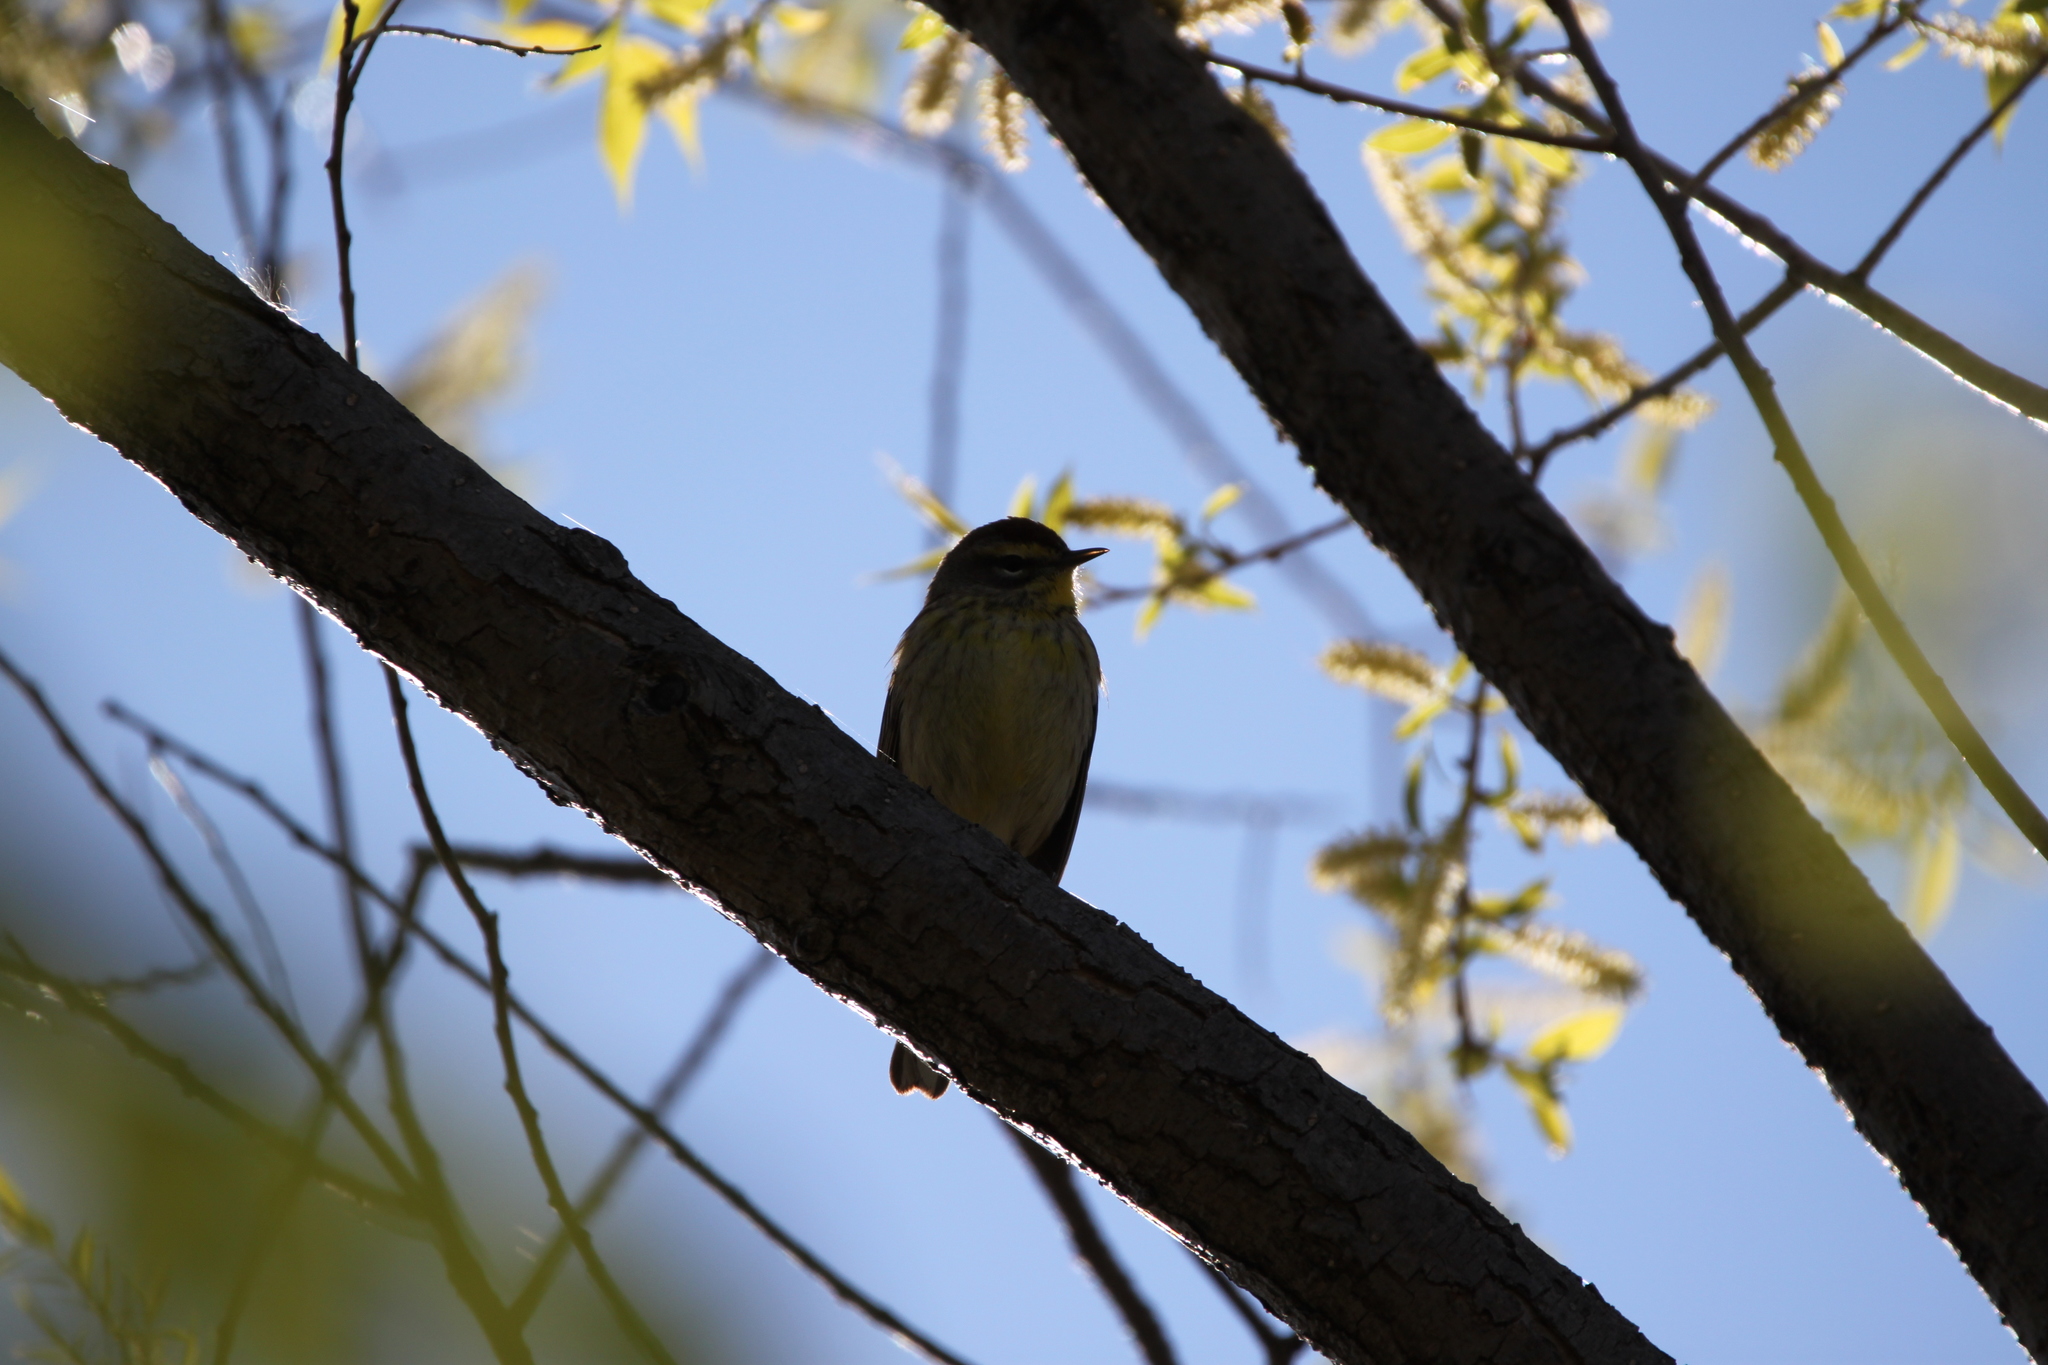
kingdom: Animalia
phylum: Chordata
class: Aves
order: Passeriformes
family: Parulidae
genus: Setophaga
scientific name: Setophaga palmarum
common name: Palm warbler
